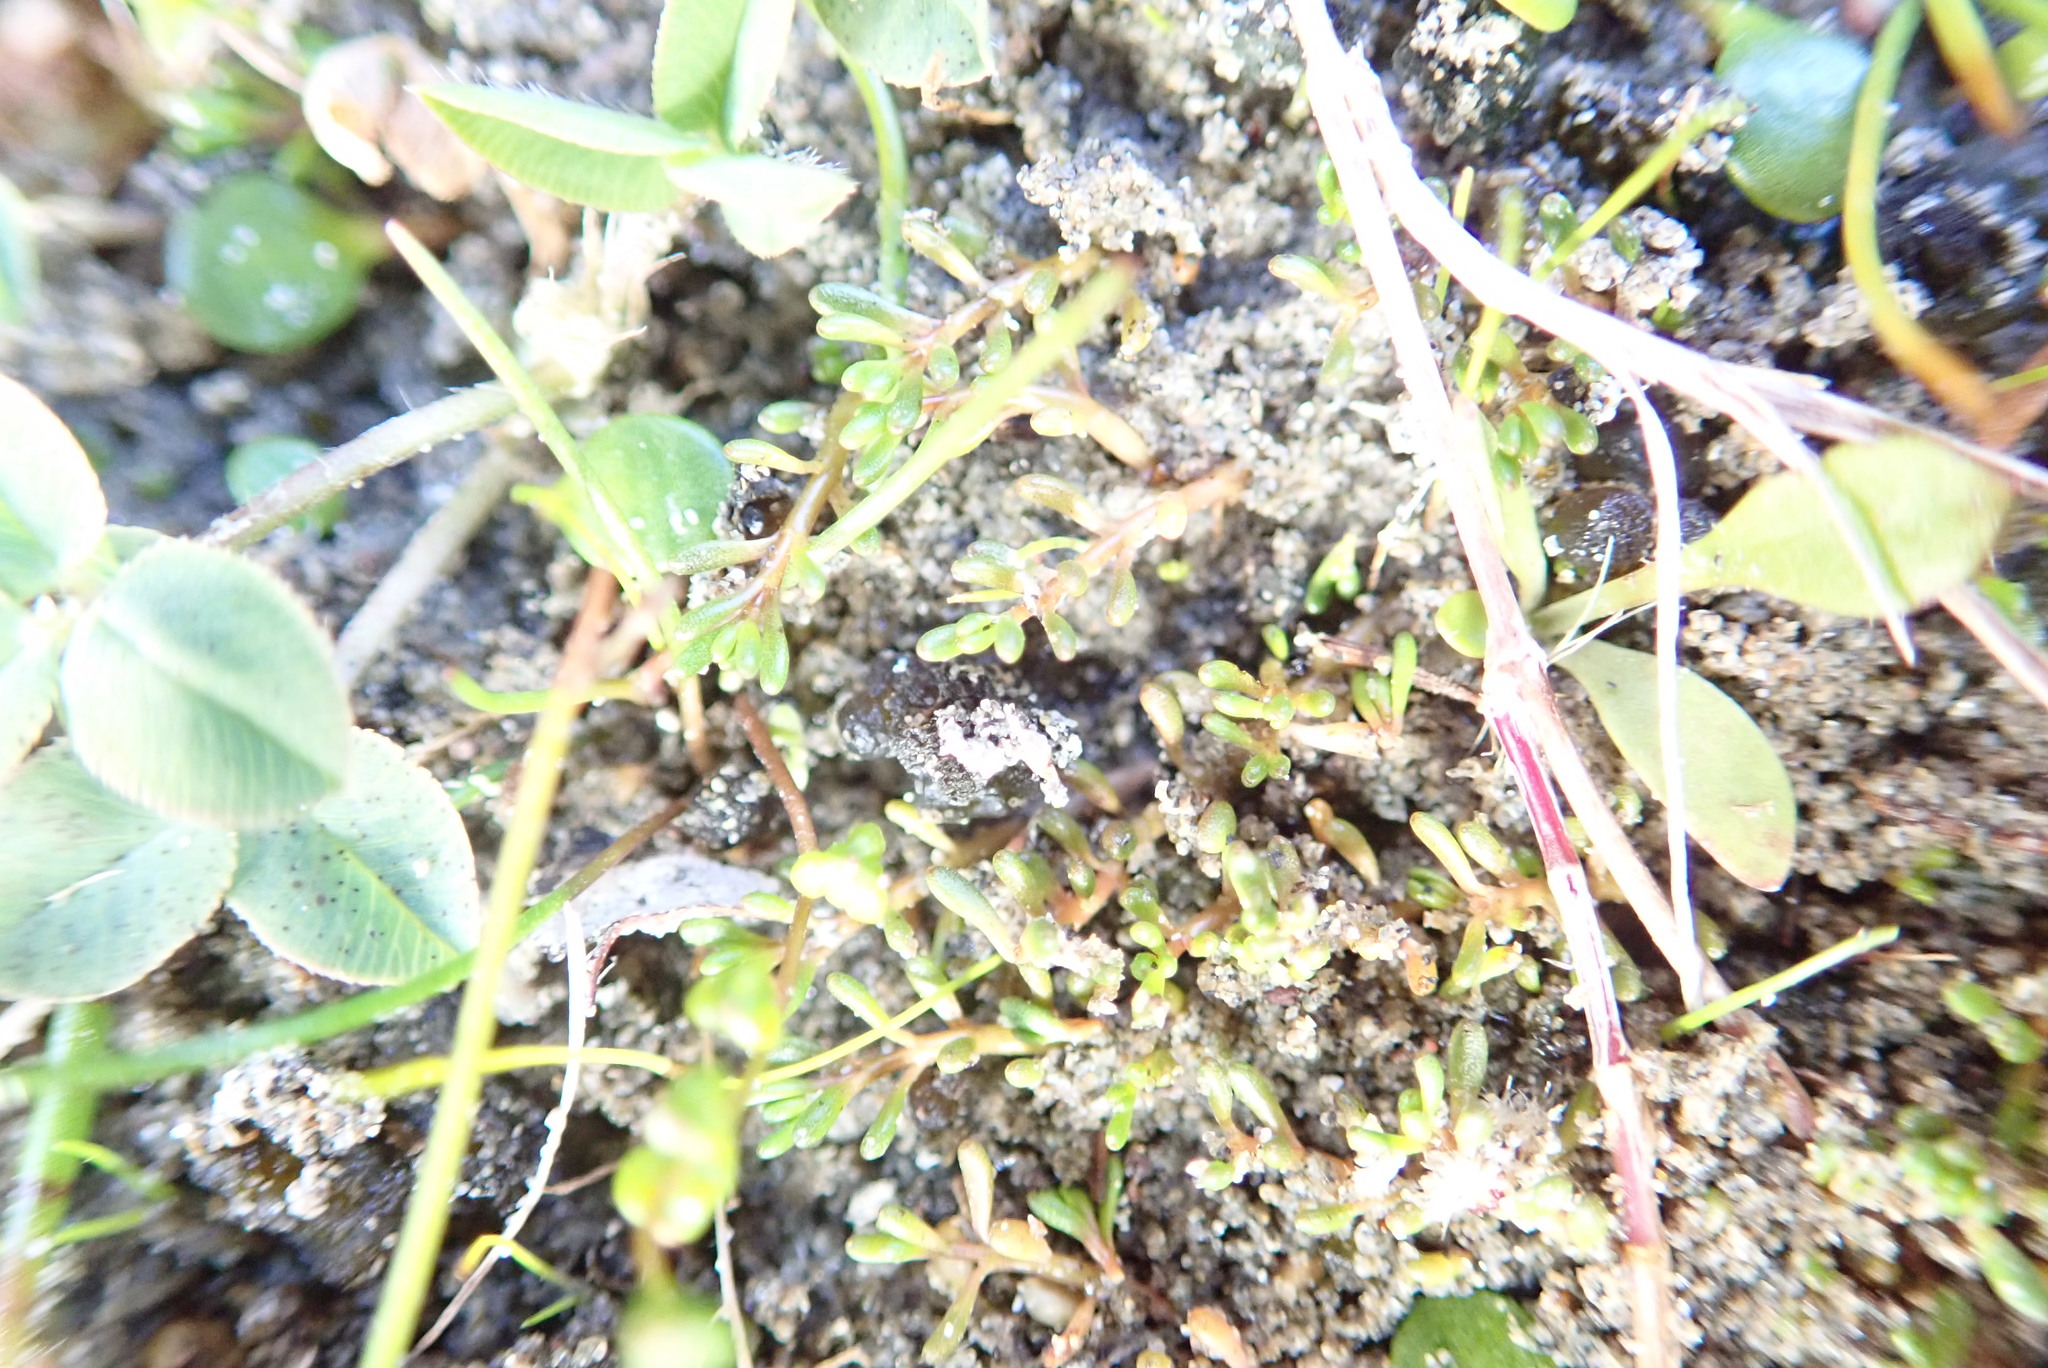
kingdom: Plantae
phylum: Tracheophyta
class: Magnoliopsida
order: Saxifragales
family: Haloragaceae
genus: Myriophyllum
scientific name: Myriophyllum votschii
